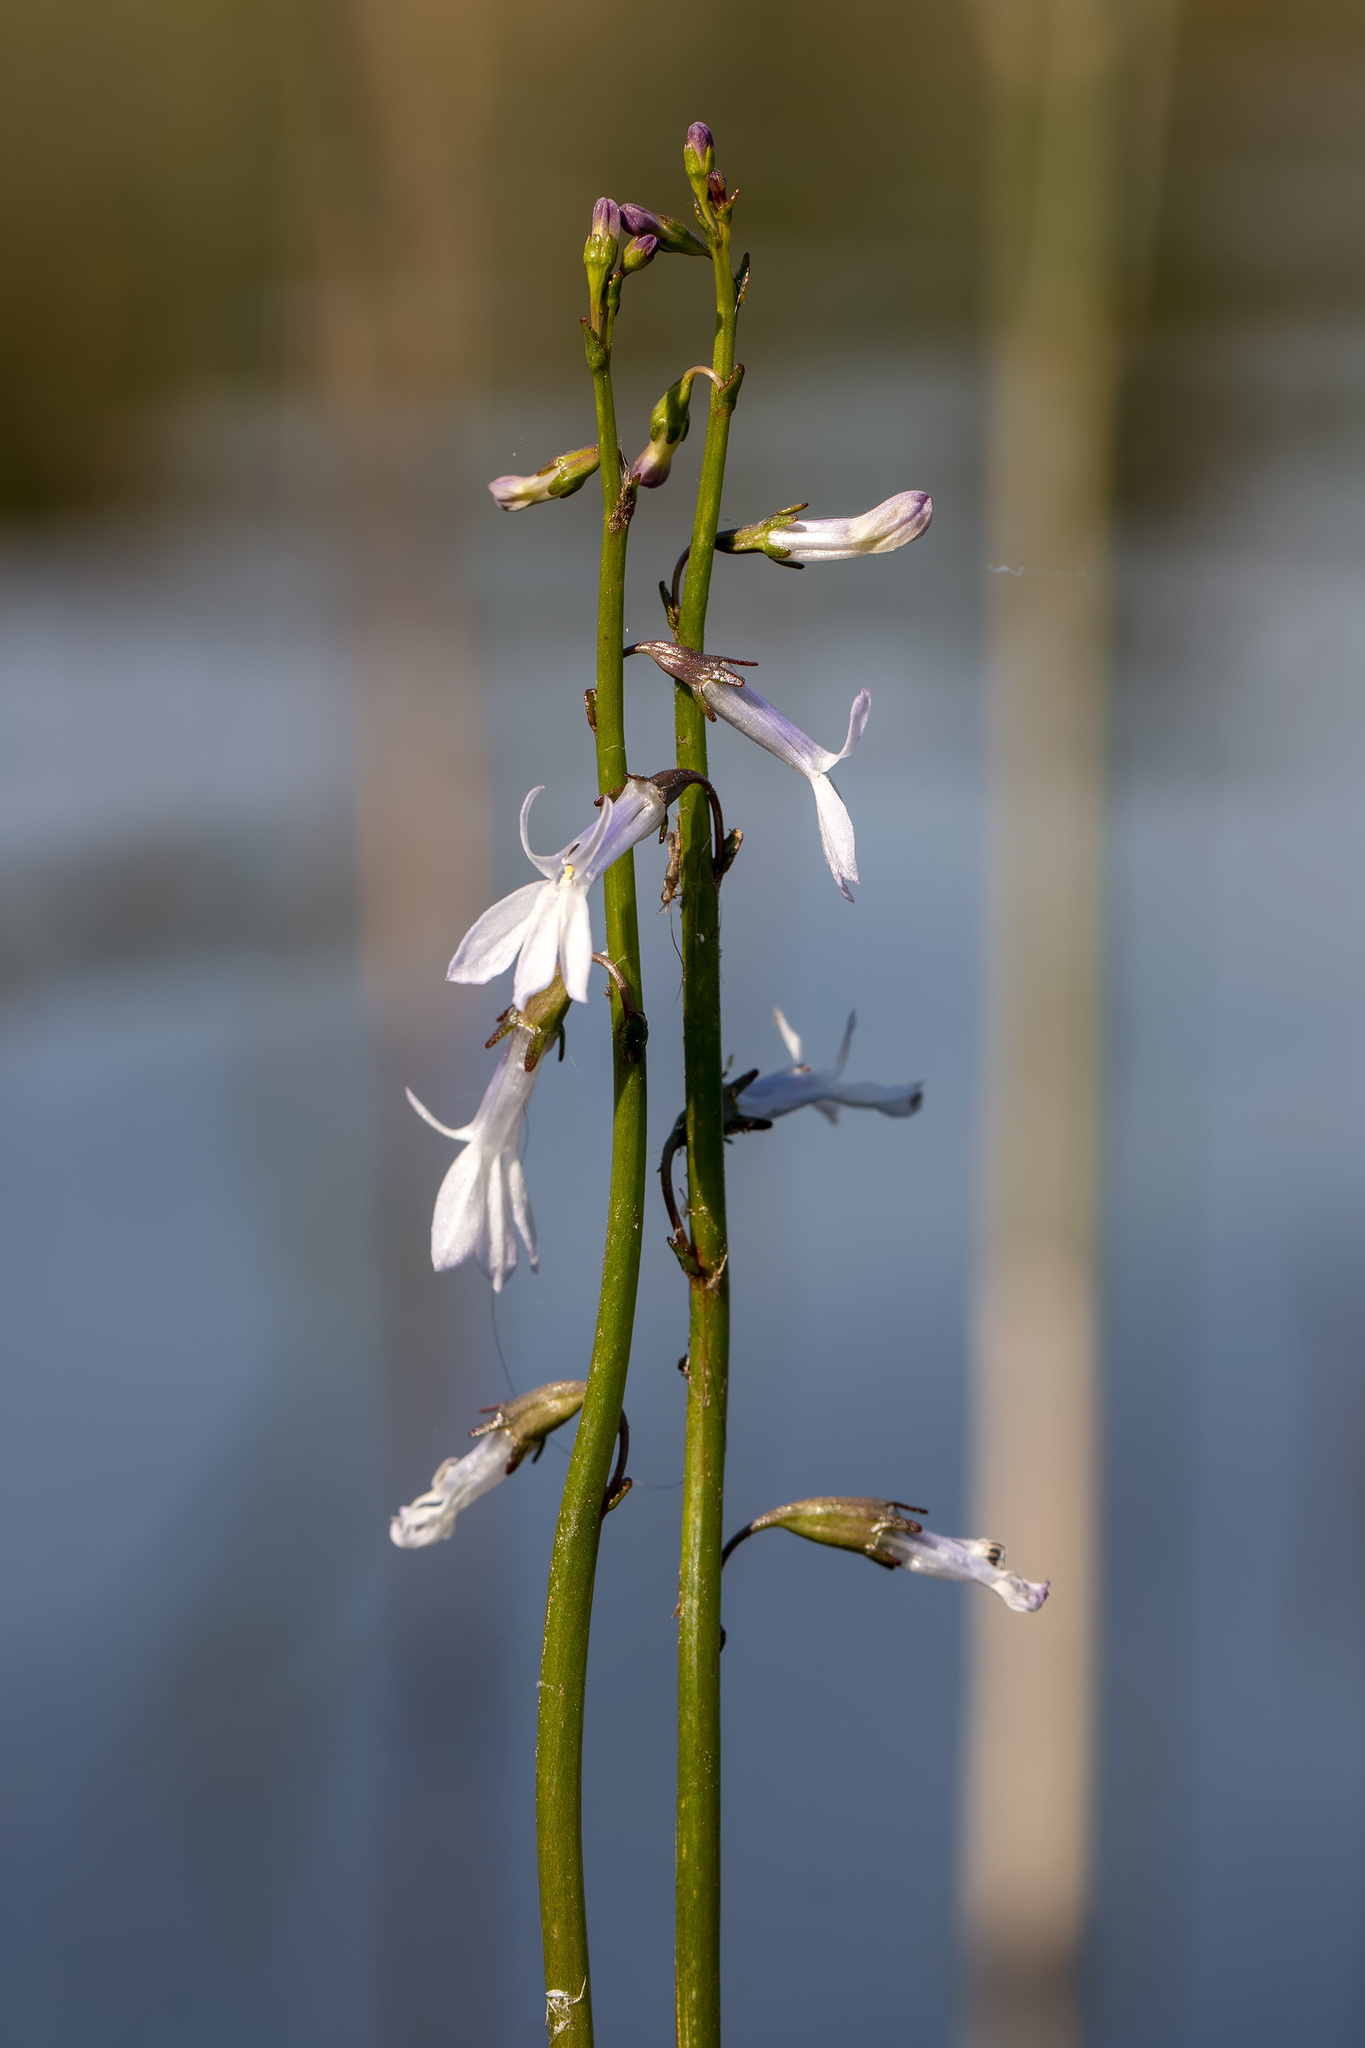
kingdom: Plantae
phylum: Tracheophyta
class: Magnoliopsida
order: Asterales
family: Campanulaceae
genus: Lobelia
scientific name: Lobelia dortmanna
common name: Water lobelia
